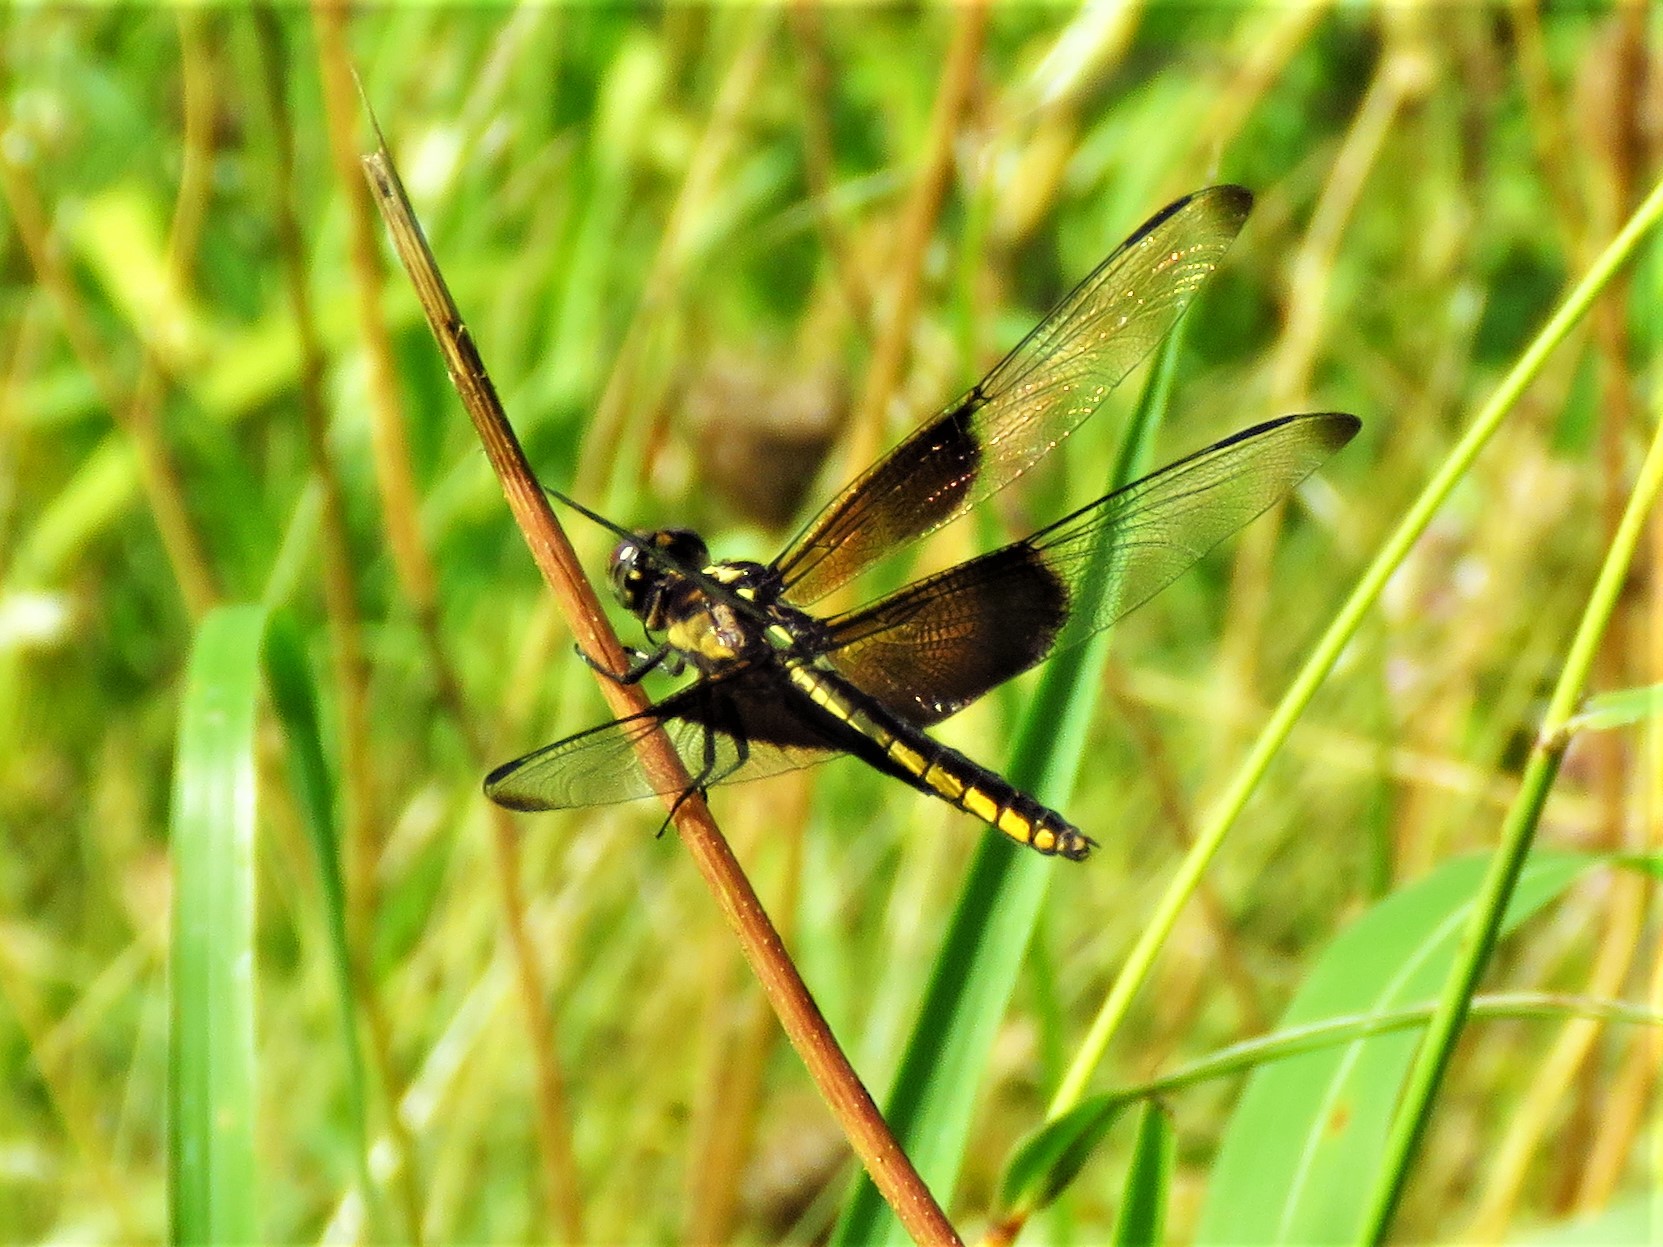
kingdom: Animalia
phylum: Arthropoda
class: Insecta
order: Odonata
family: Libellulidae
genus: Libellula
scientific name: Libellula luctuosa
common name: Widow skimmer
